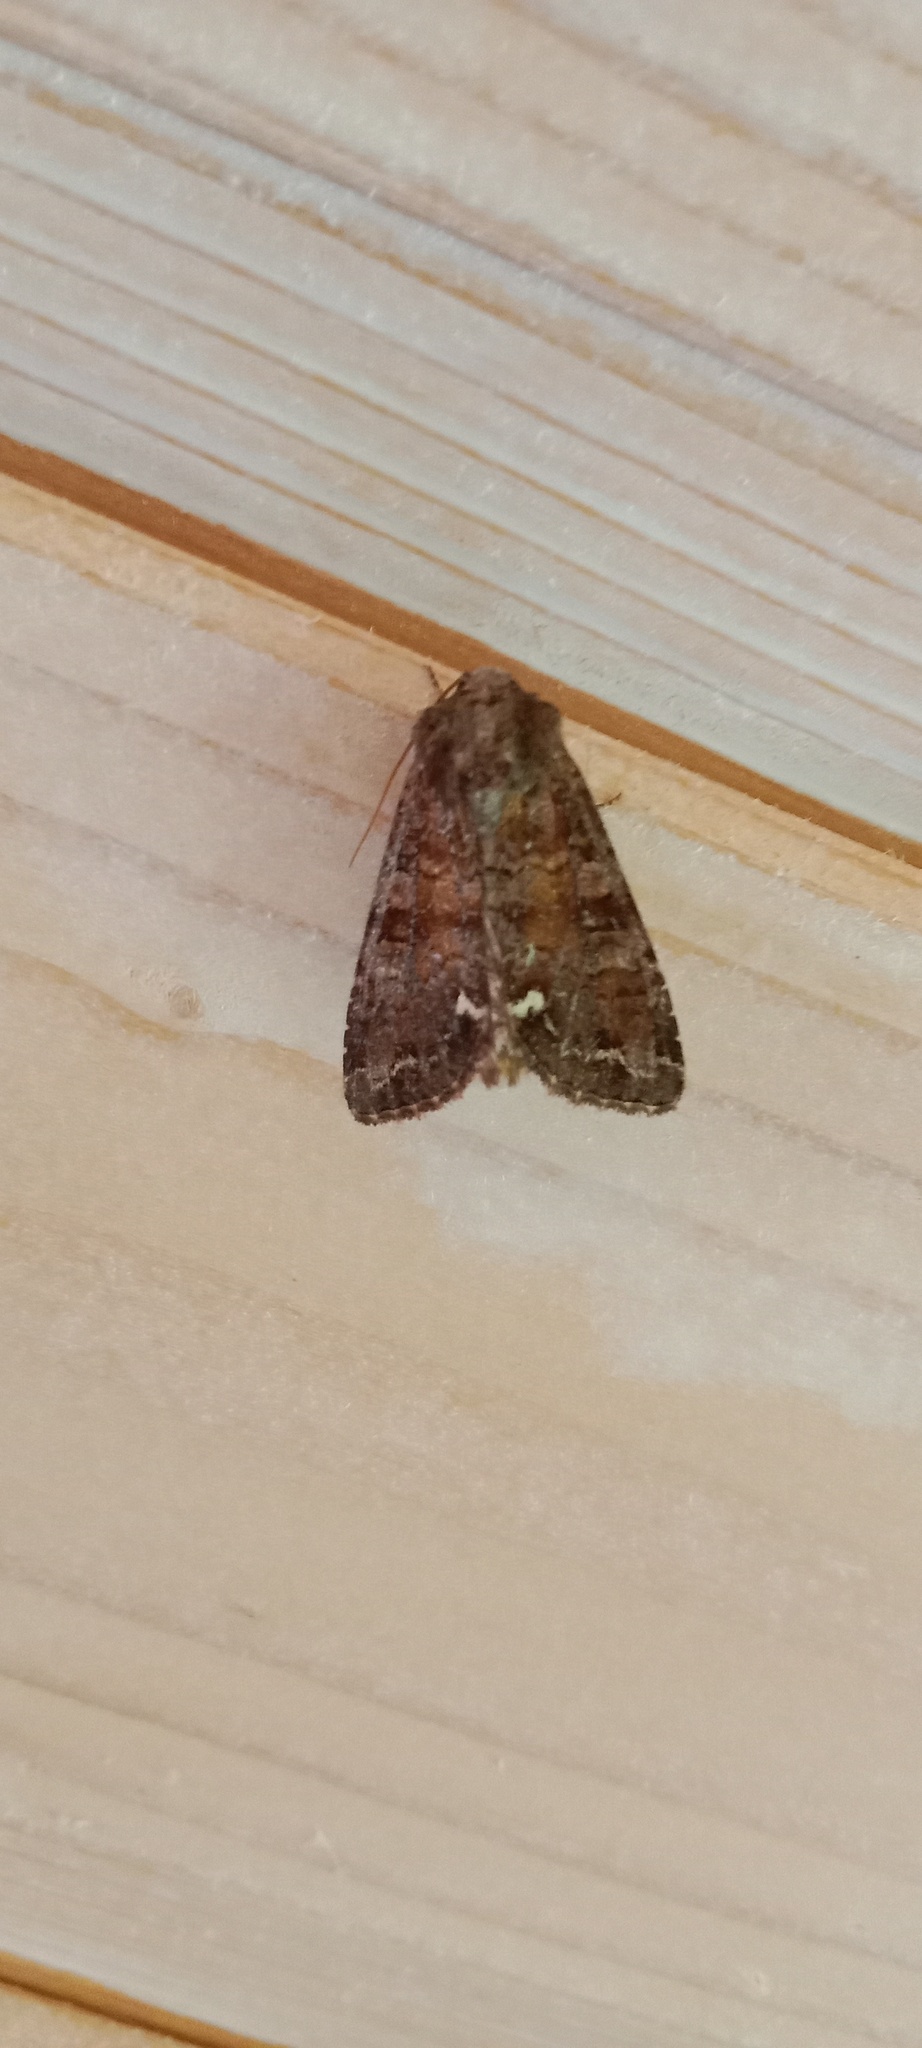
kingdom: Animalia
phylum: Arthropoda
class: Insecta
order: Lepidoptera
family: Noctuidae
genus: Ceramica
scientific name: Ceramica pisi
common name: Broom moth
